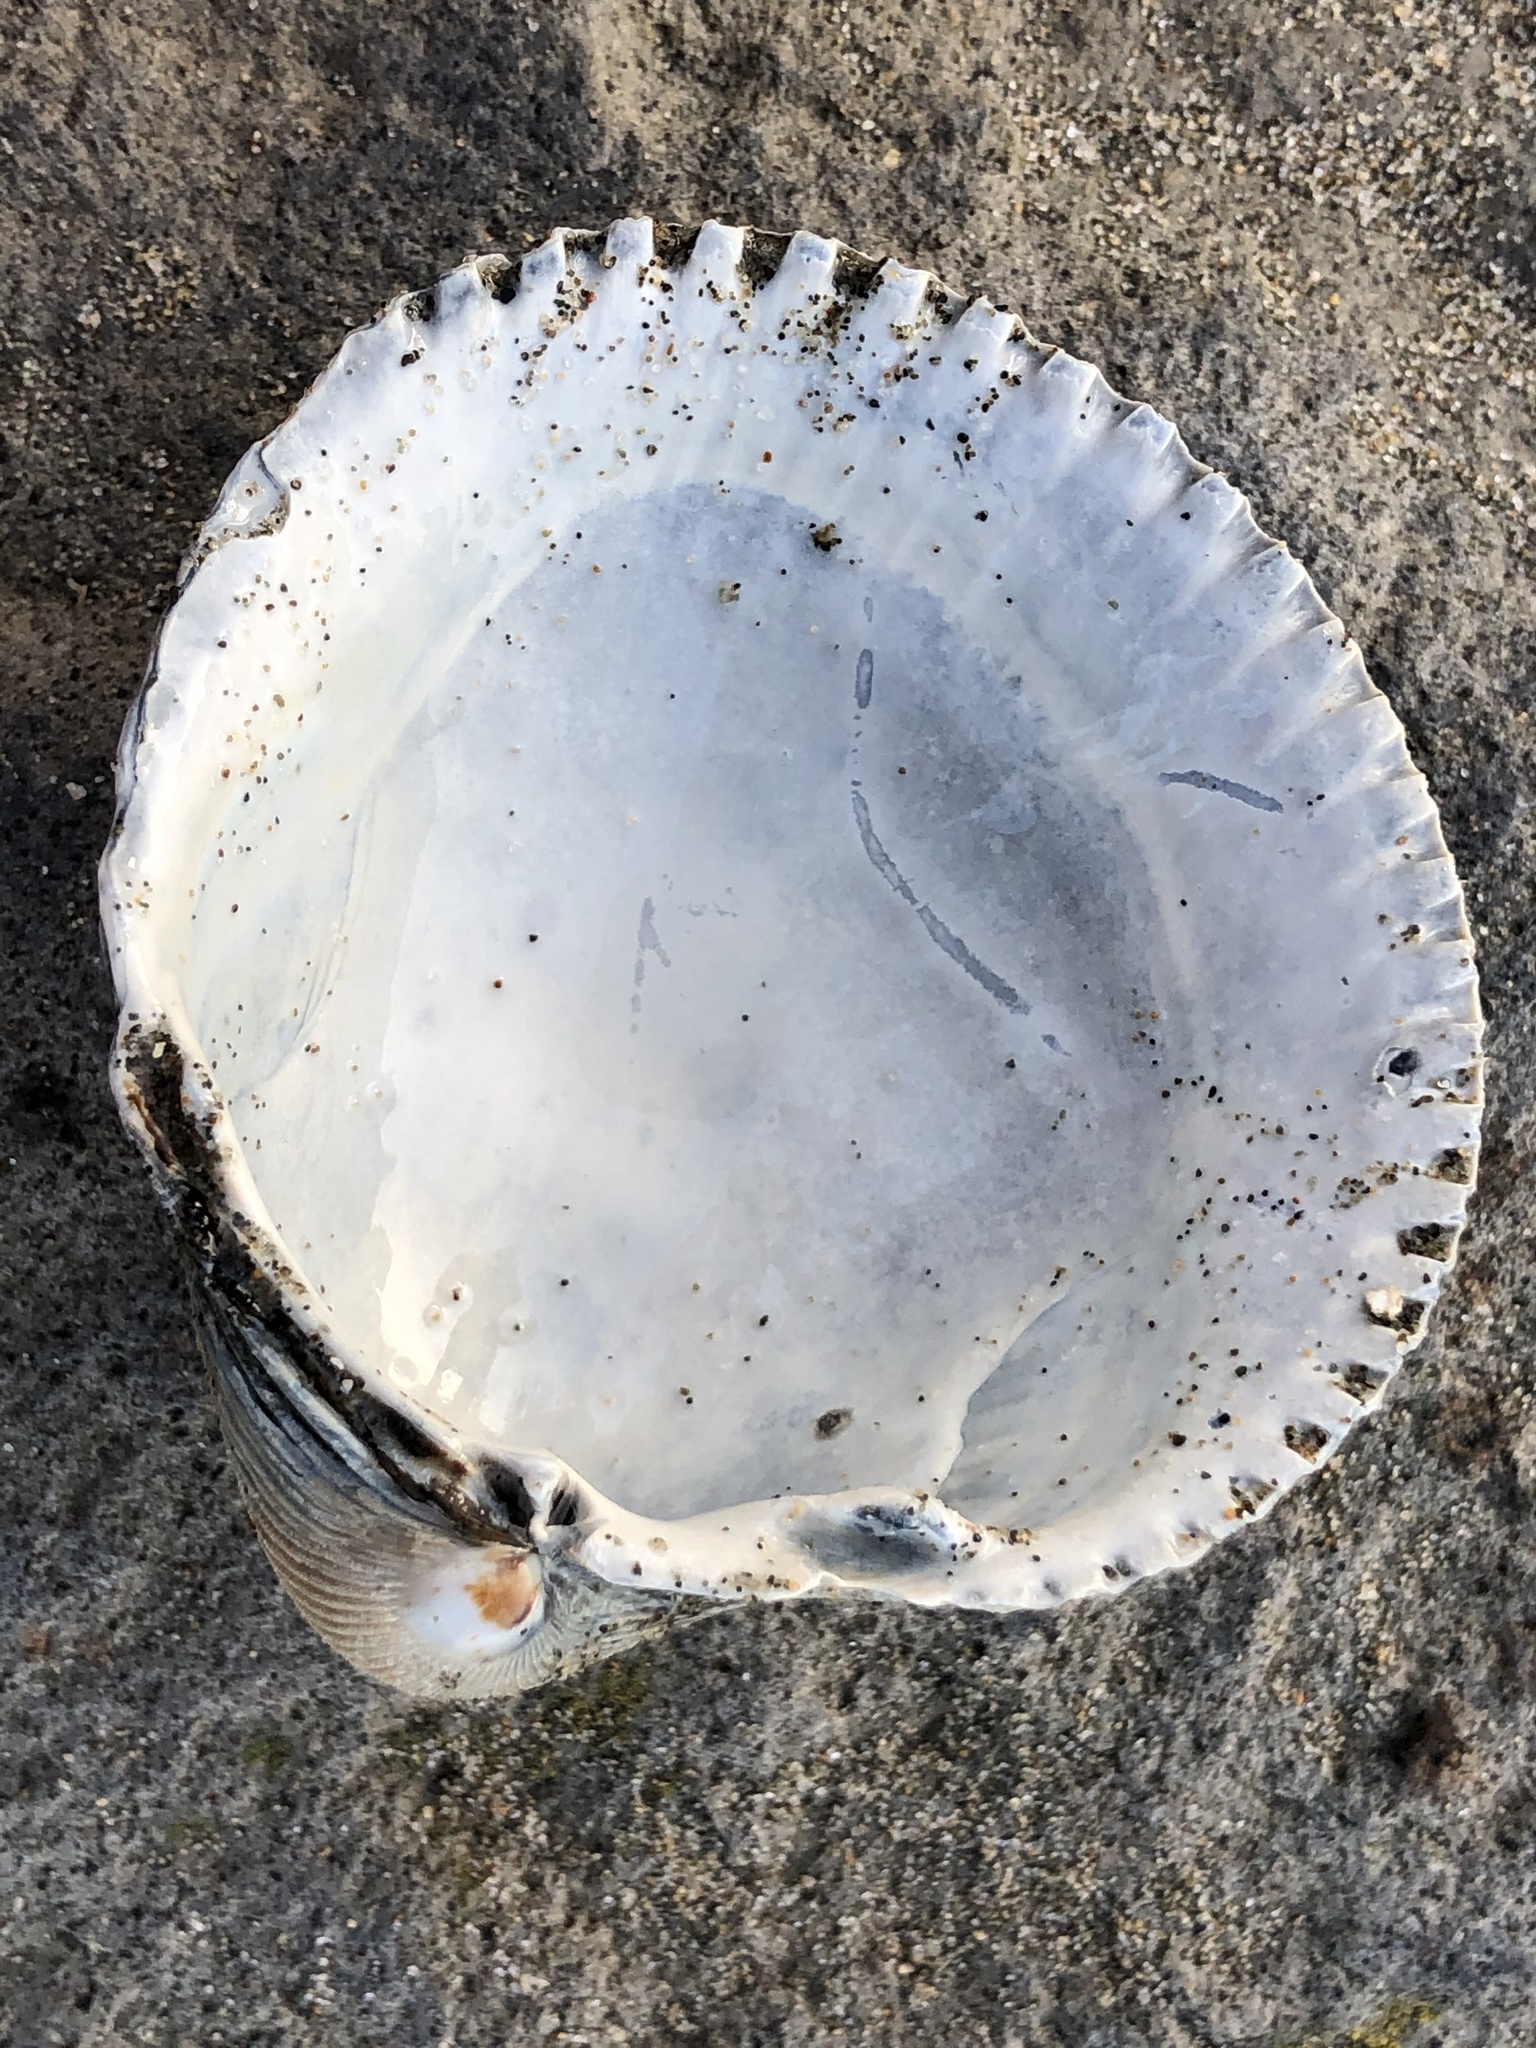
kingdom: Animalia
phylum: Mollusca
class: Bivalvia
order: Cardiida
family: Cardiidae
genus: Clinocardium
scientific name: Clinocardium nuttallii
